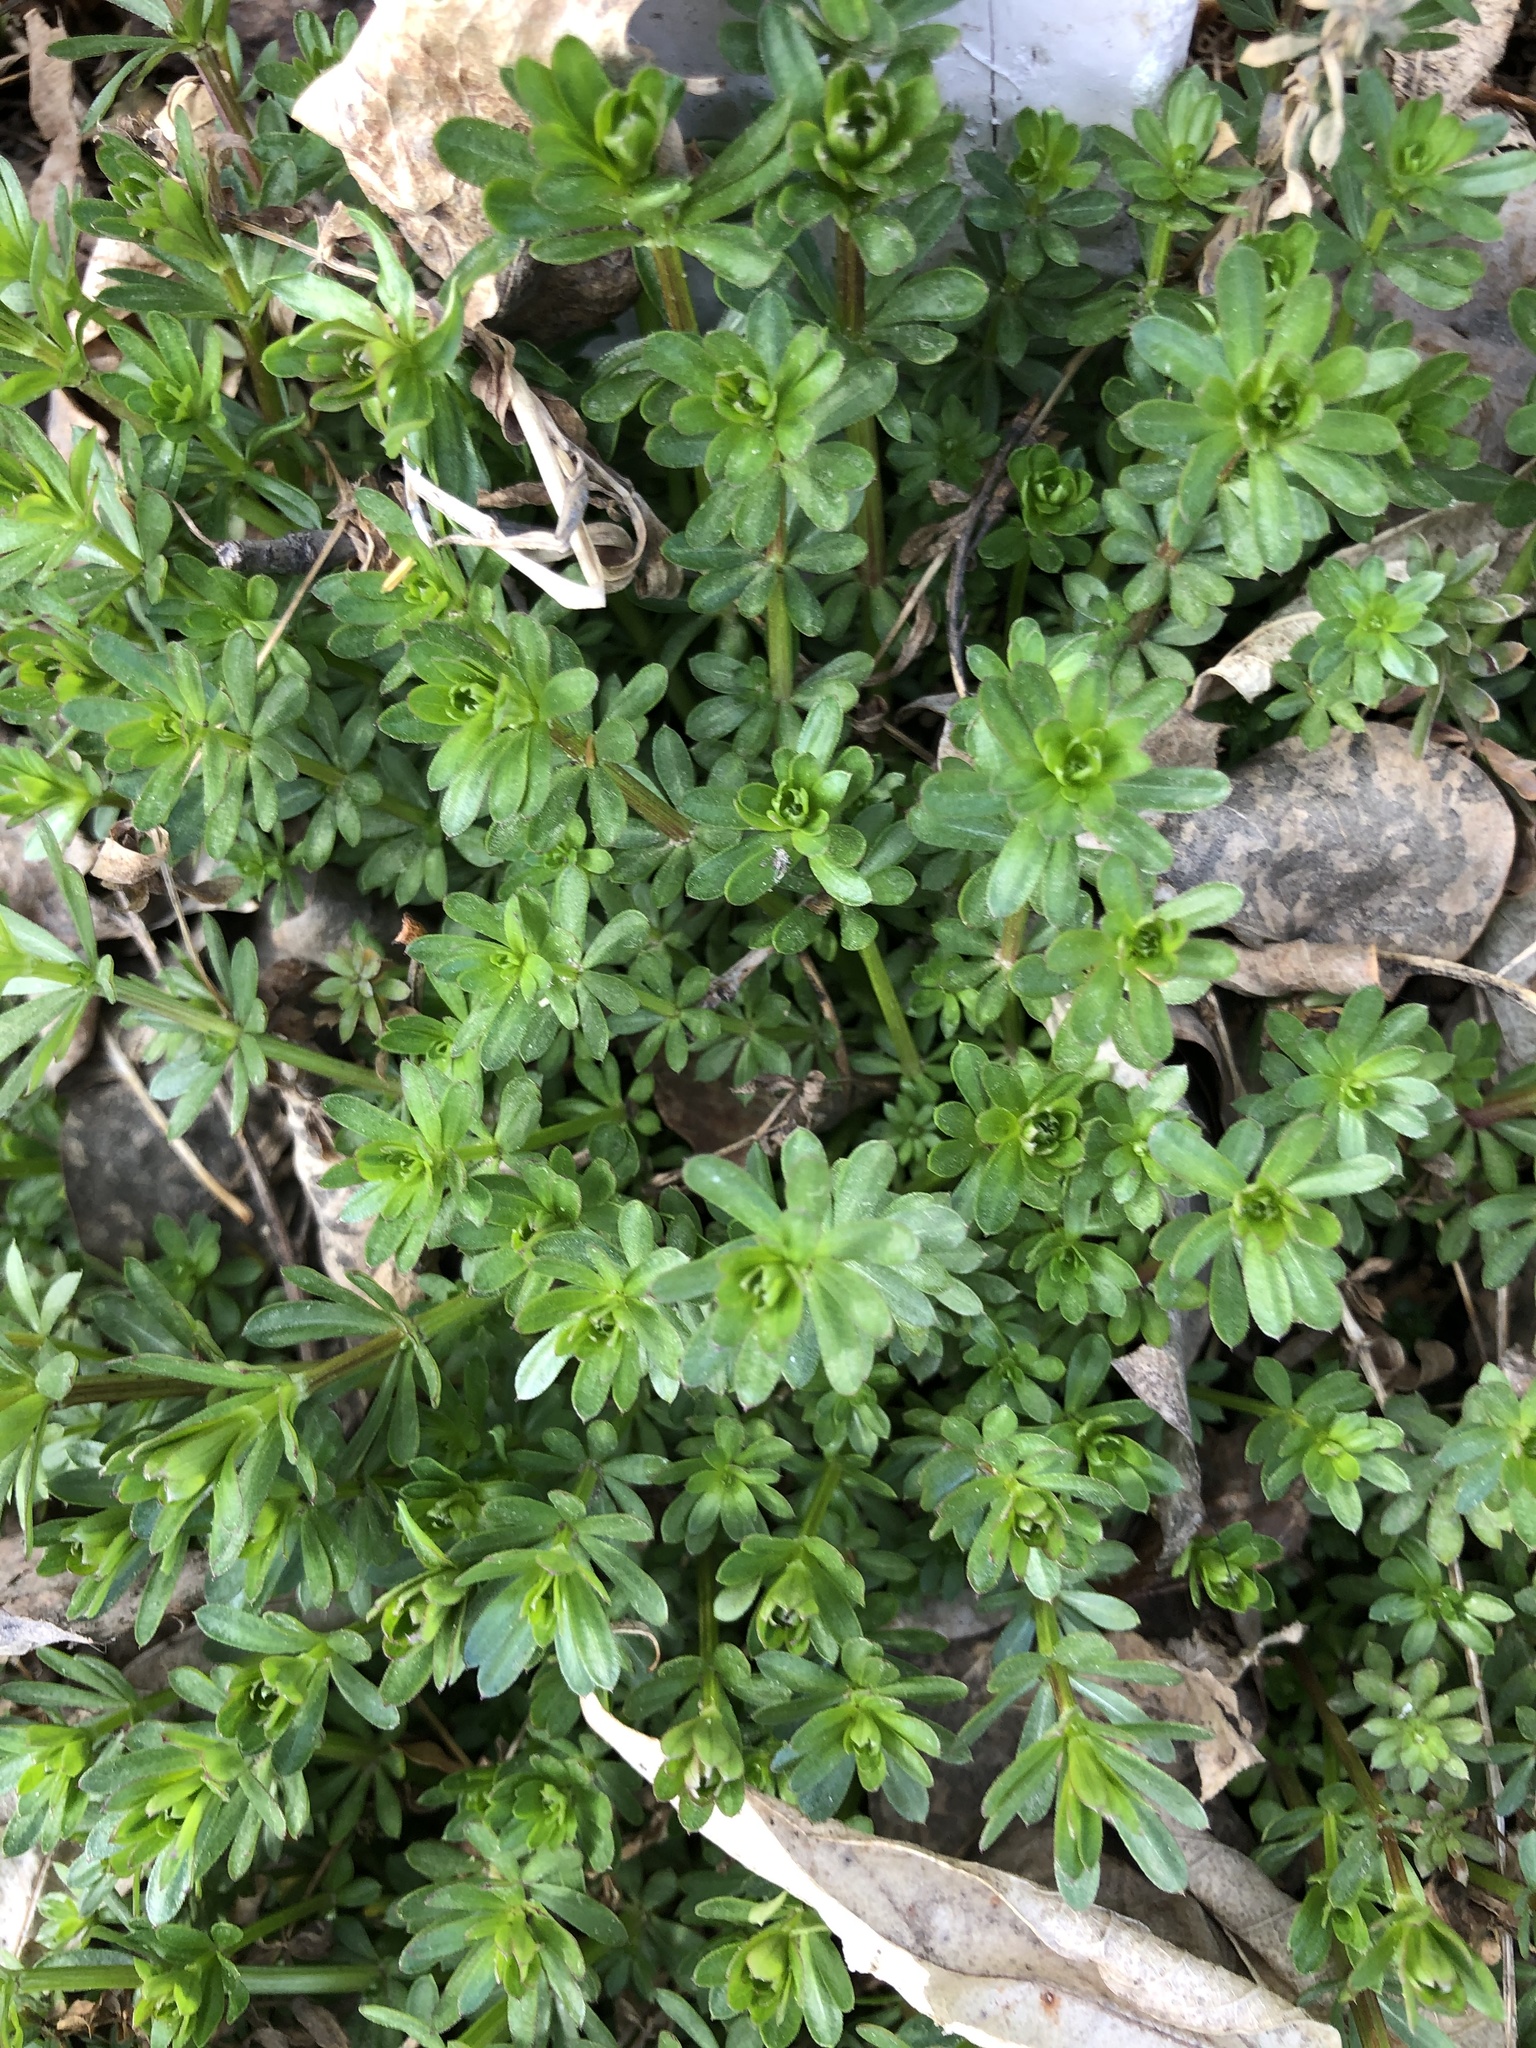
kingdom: Plantae
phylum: Tracheophyta
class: Magnoliopsida
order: Gentianales
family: Rubiaceae
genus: Galium
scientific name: Galium mollugo
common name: Hedge bedstraw
